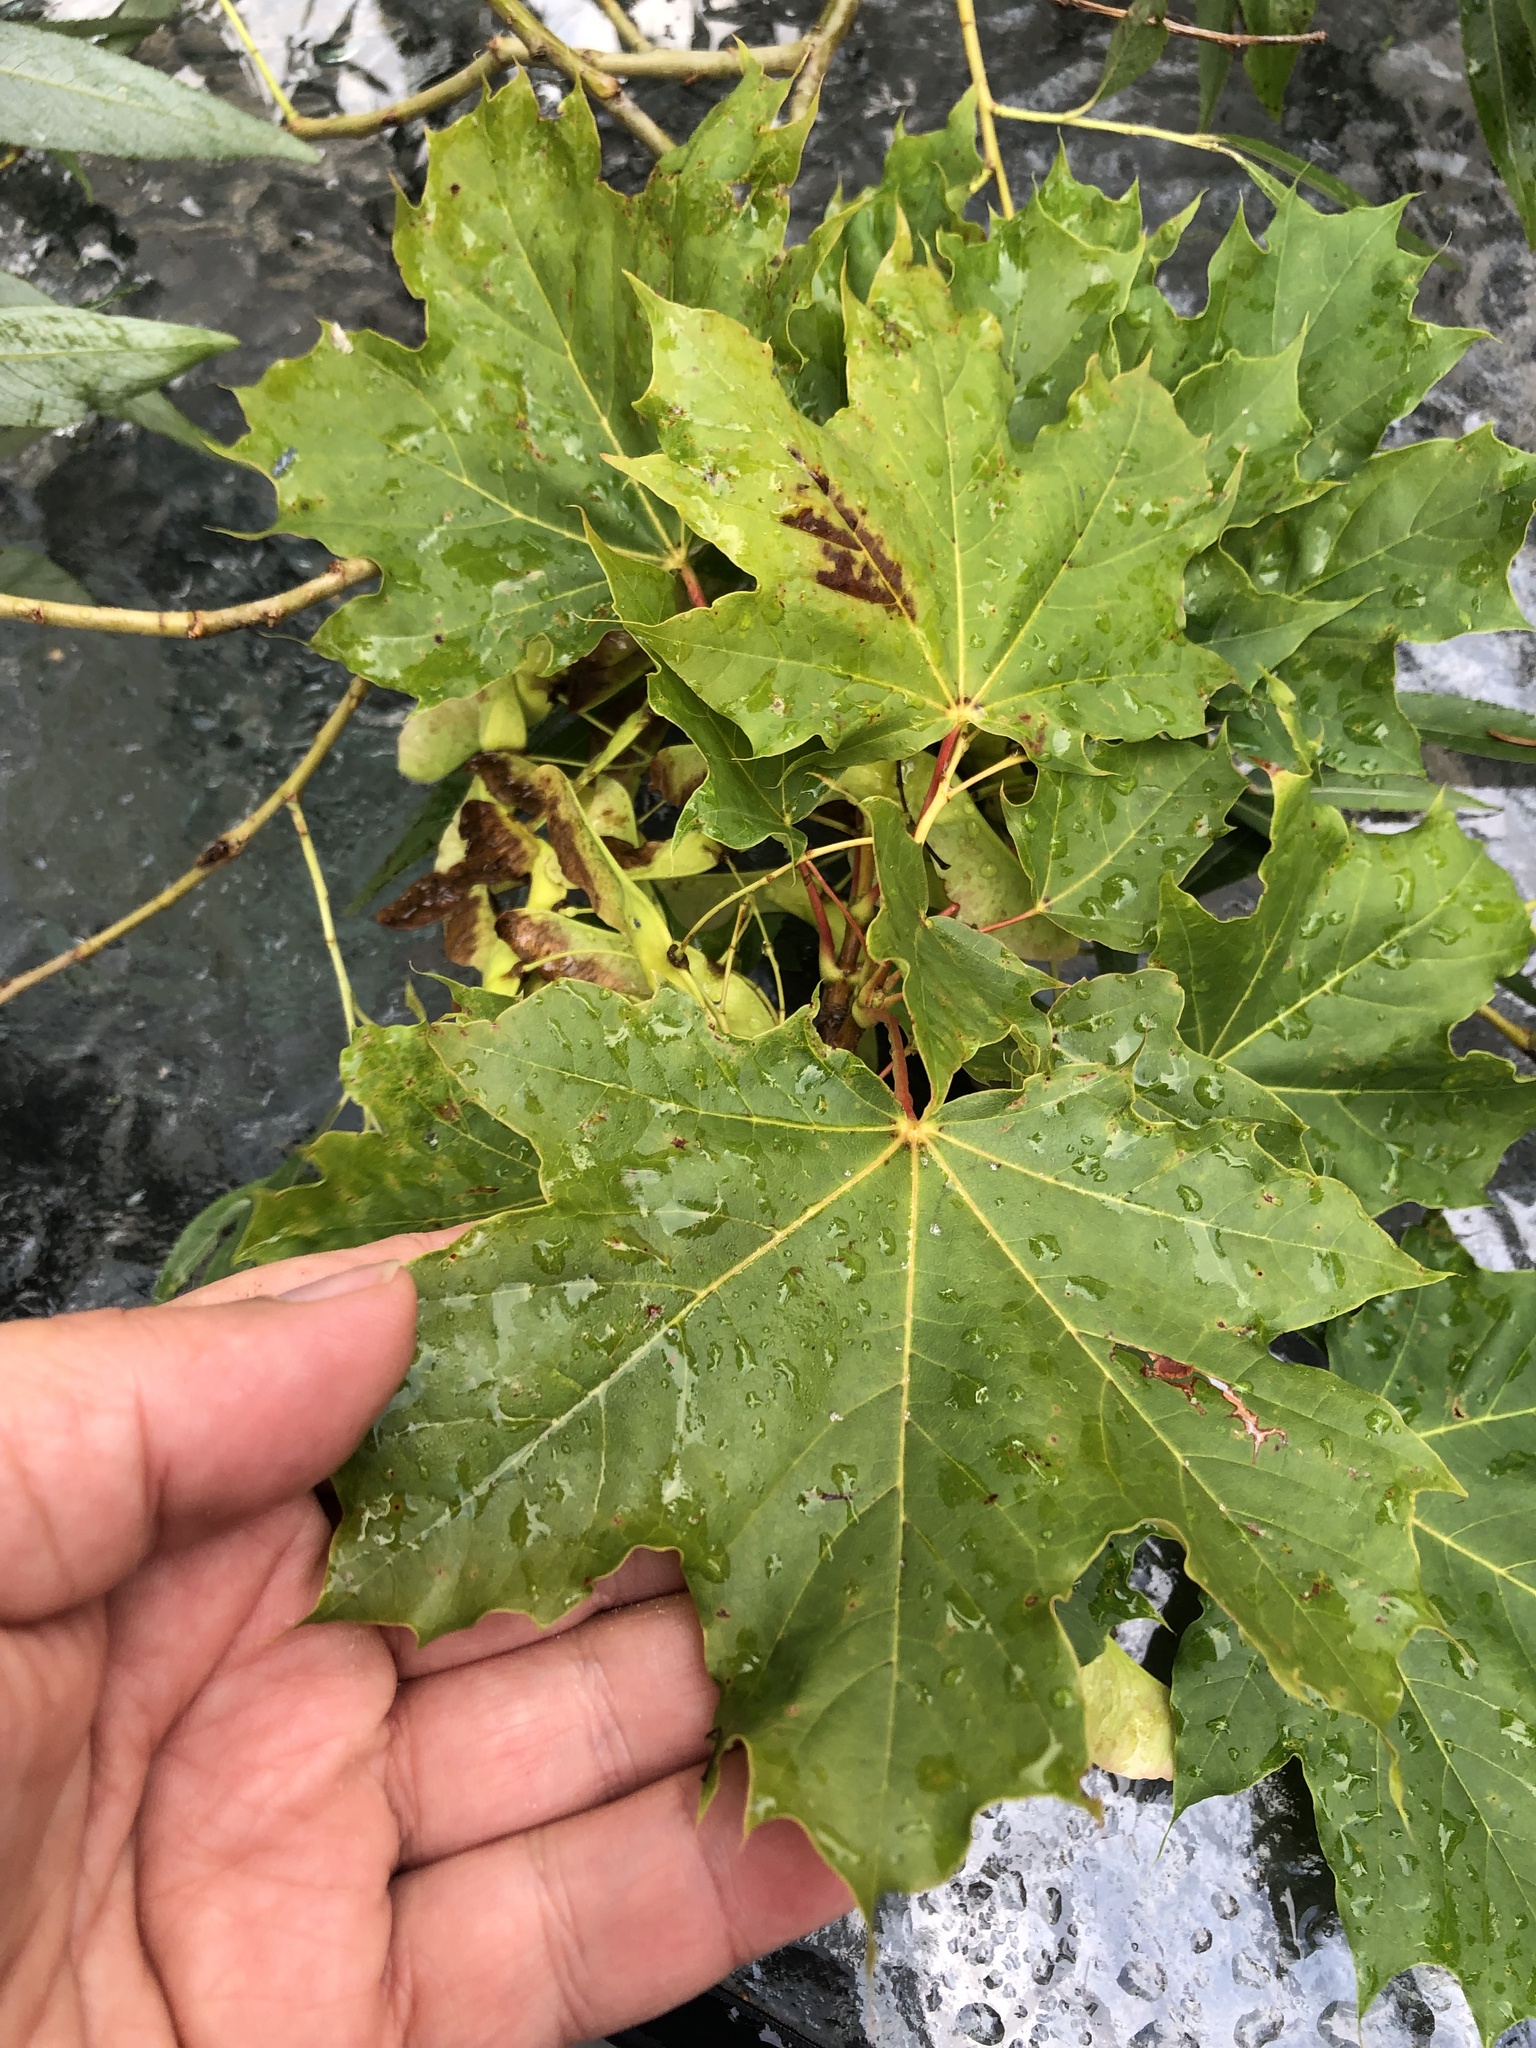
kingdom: Plantae
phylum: Tracheophyta
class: Magnoliopsida
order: Sapindales
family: Sapindaceae
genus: Acer
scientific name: Acer platanoides
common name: Norway maple
